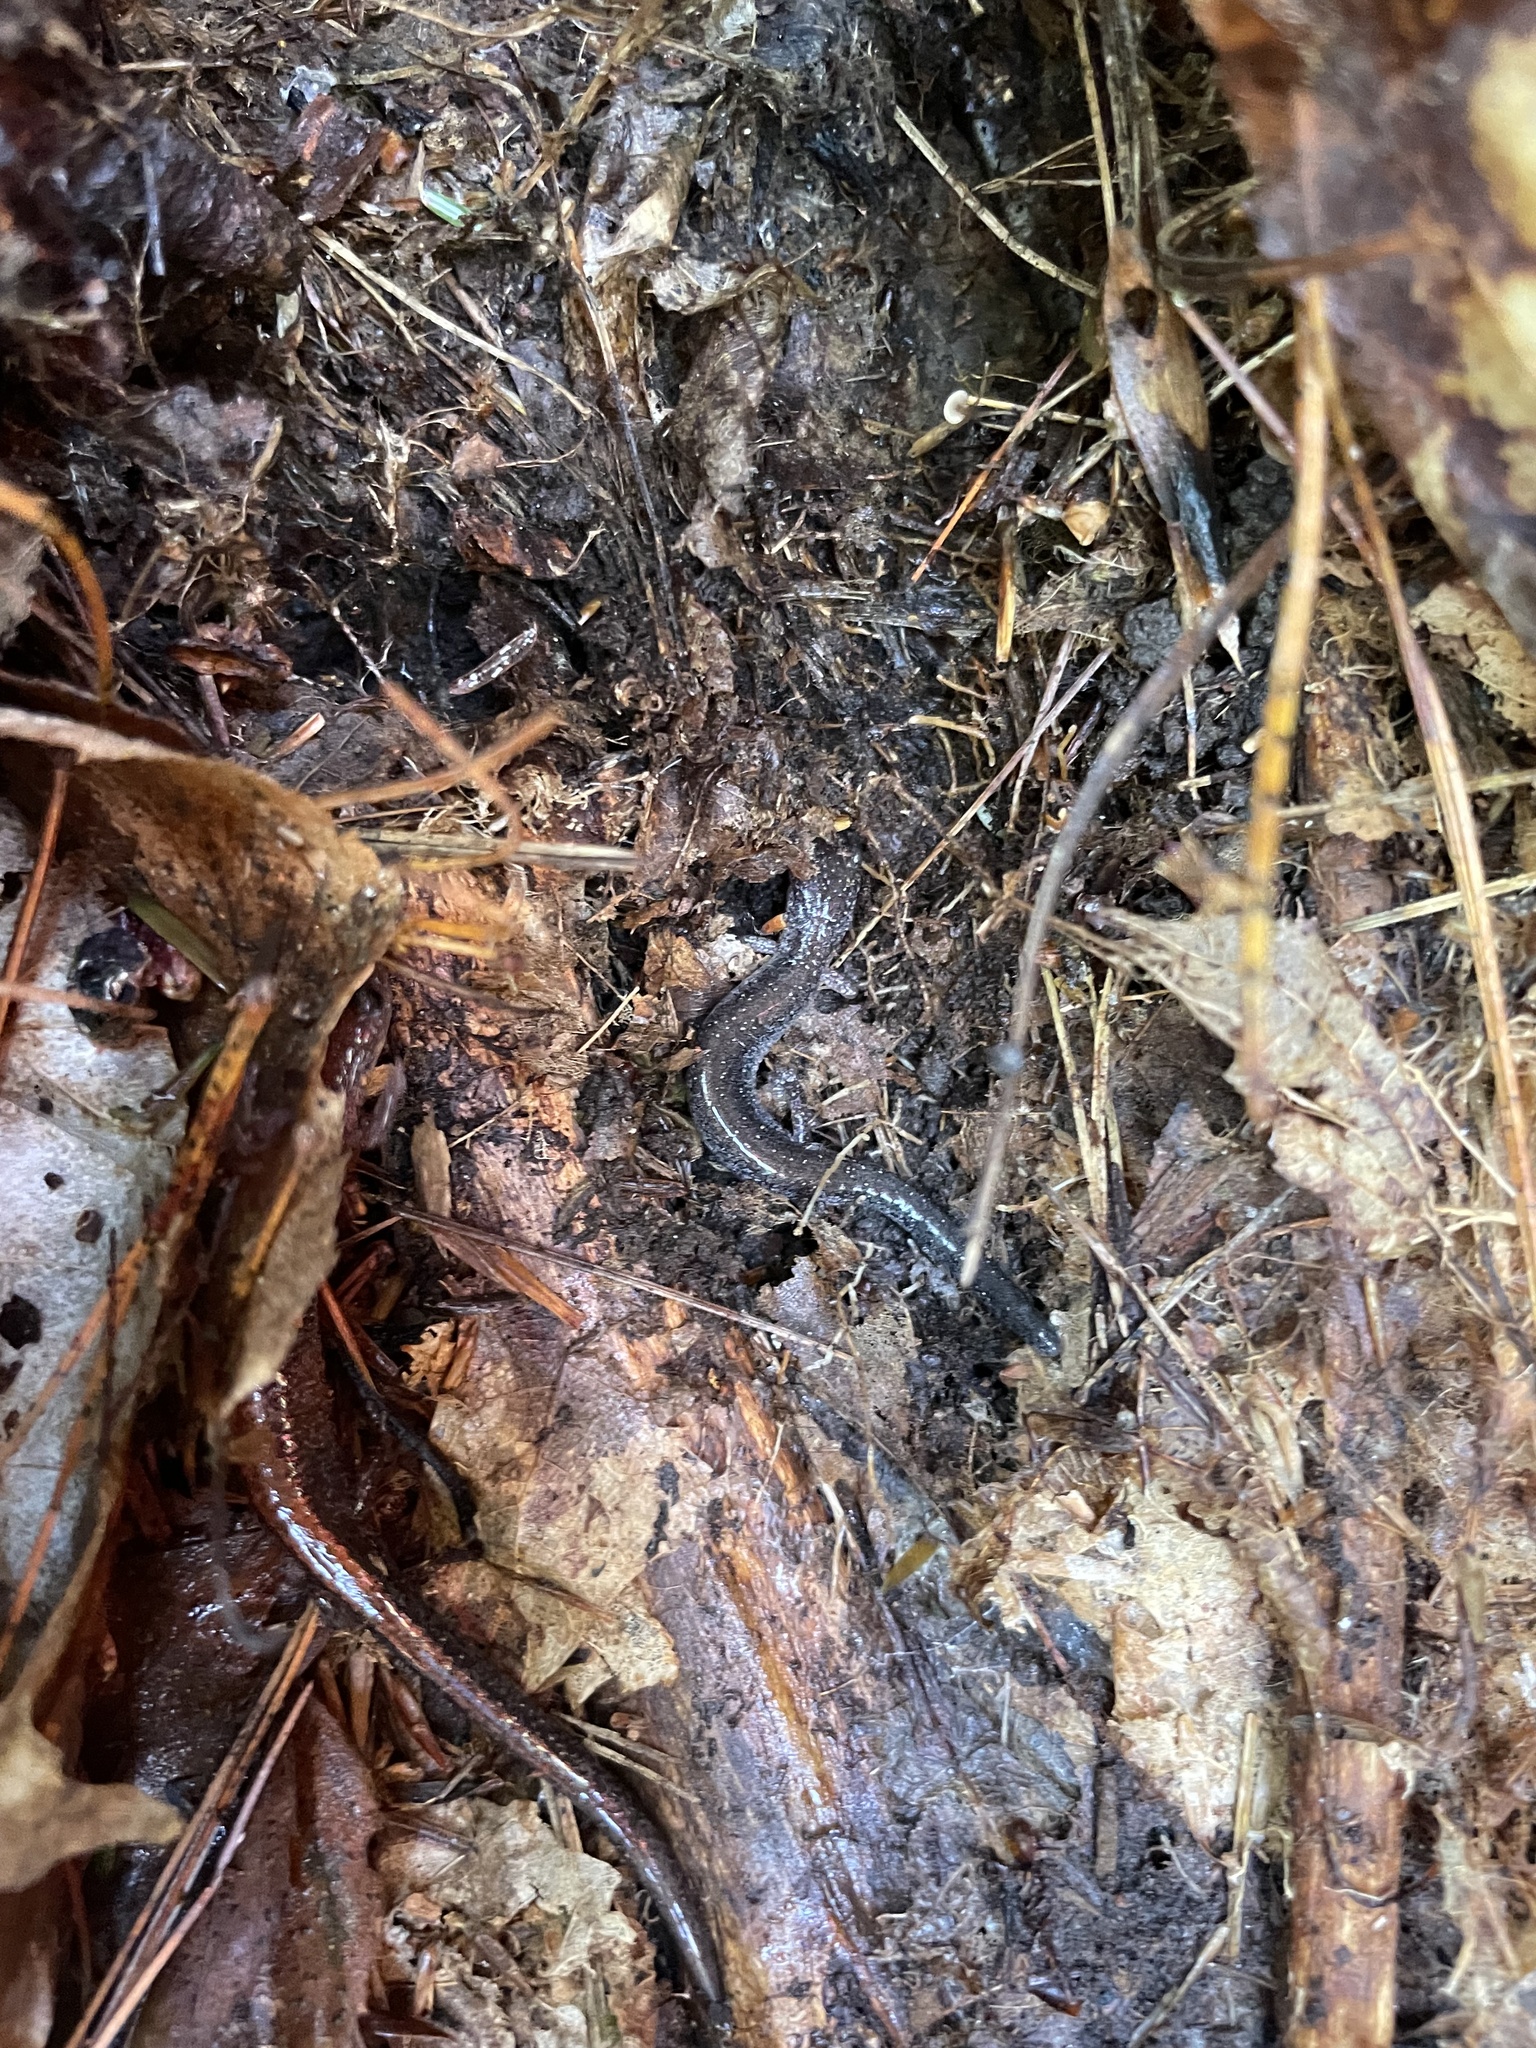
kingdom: Animalia
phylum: Chordata
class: Amphibia
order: Caudata
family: Plethodontidae
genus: Plethodon
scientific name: Plethodon cinereus
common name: Redback salamander
